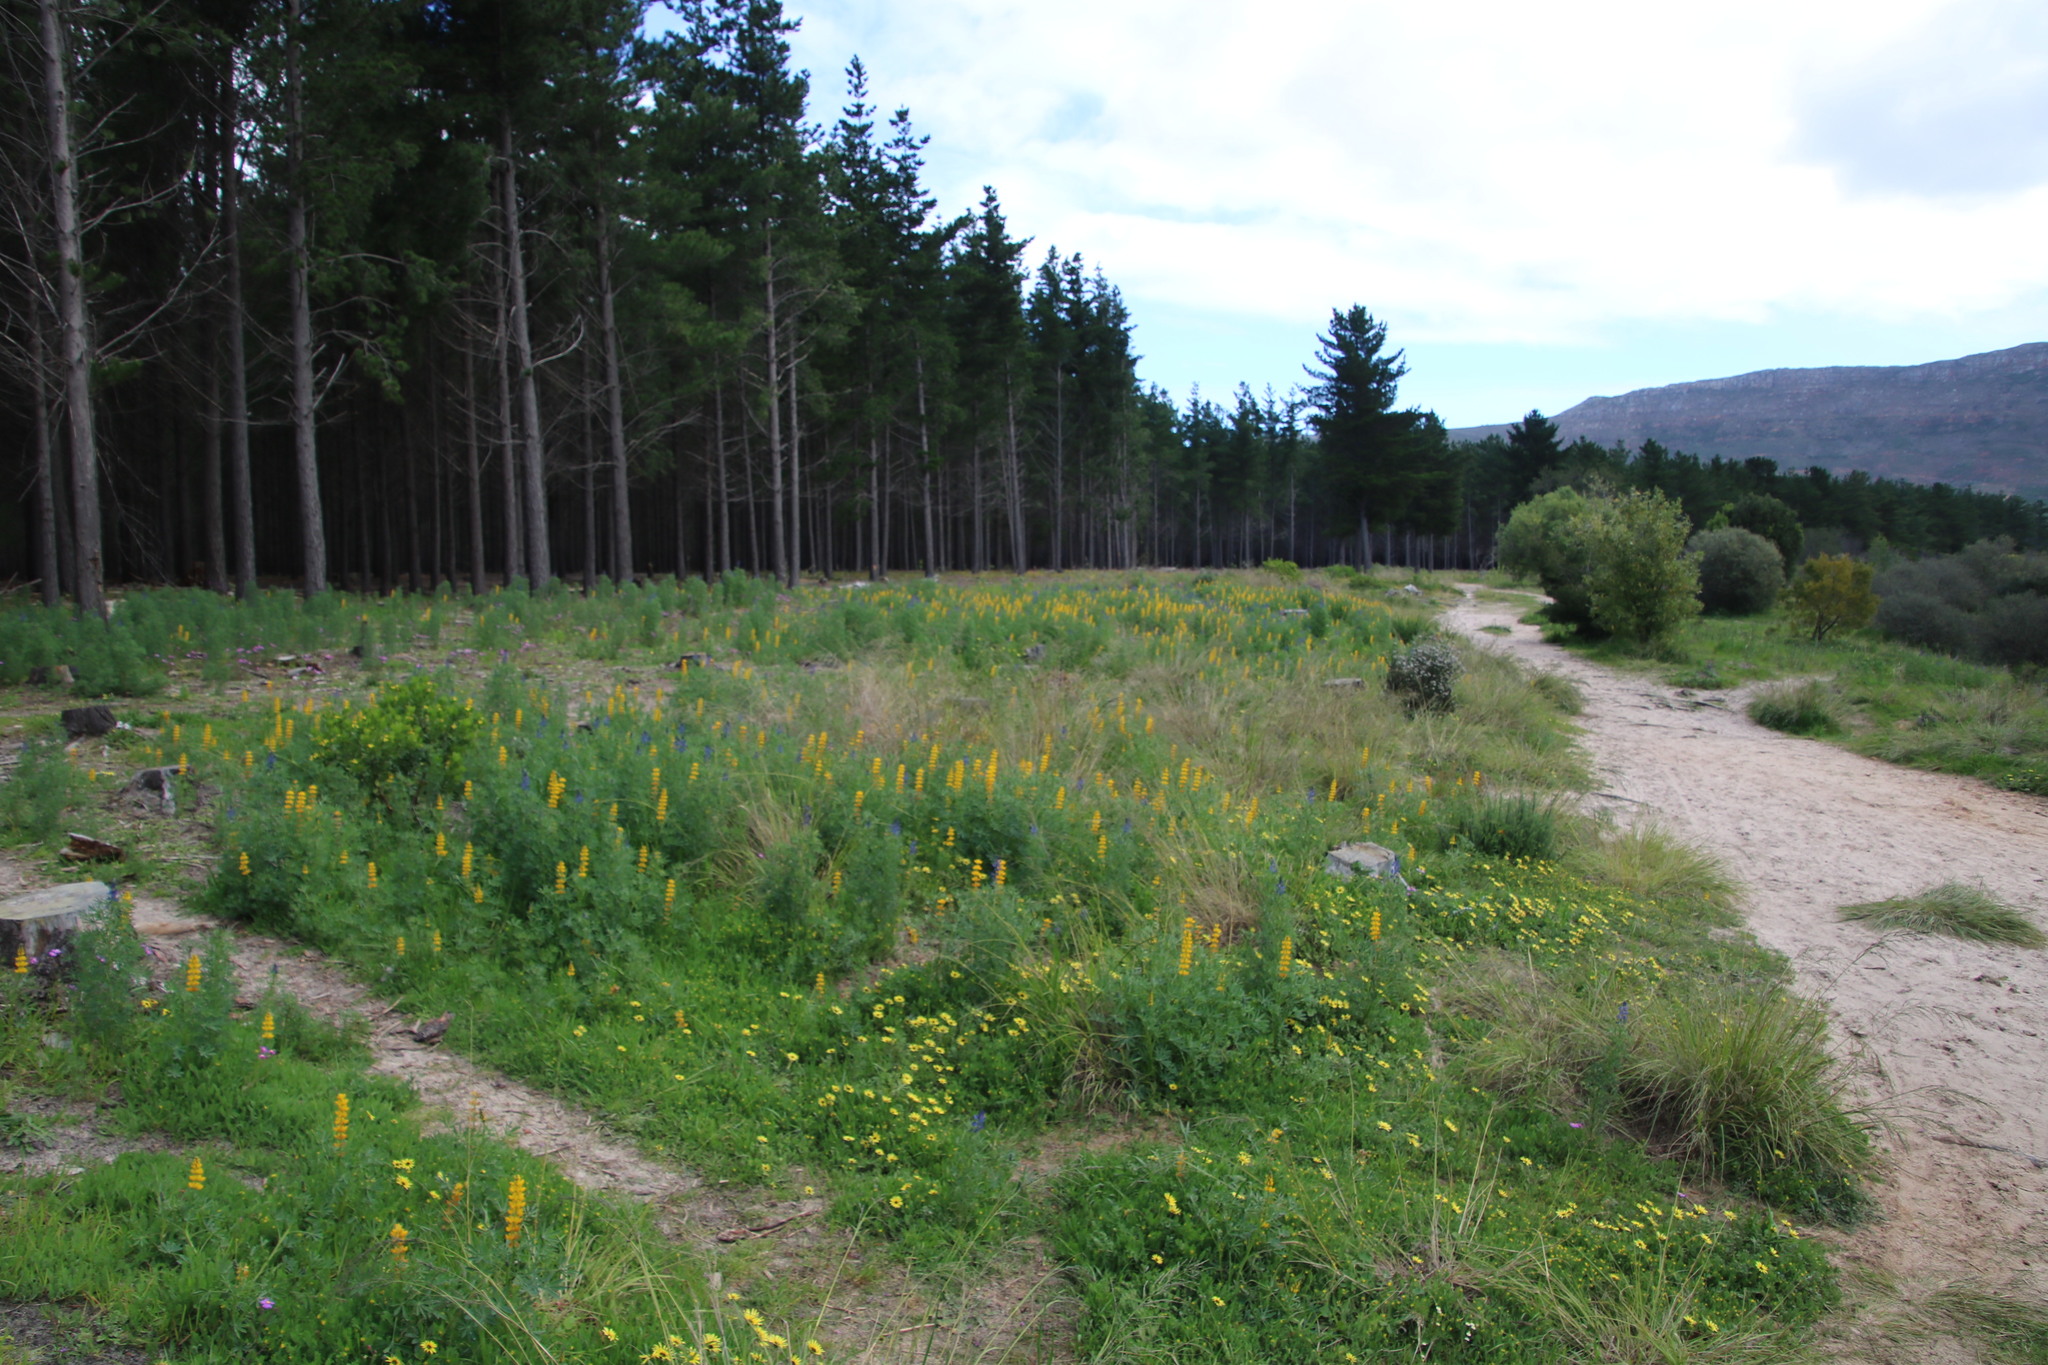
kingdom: Plantae
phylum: Tracheophyta
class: Magnoliopsida
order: Fabales
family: Fabaceae
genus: Lupinus
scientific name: Lupinus luteus
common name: European yellow lupine
